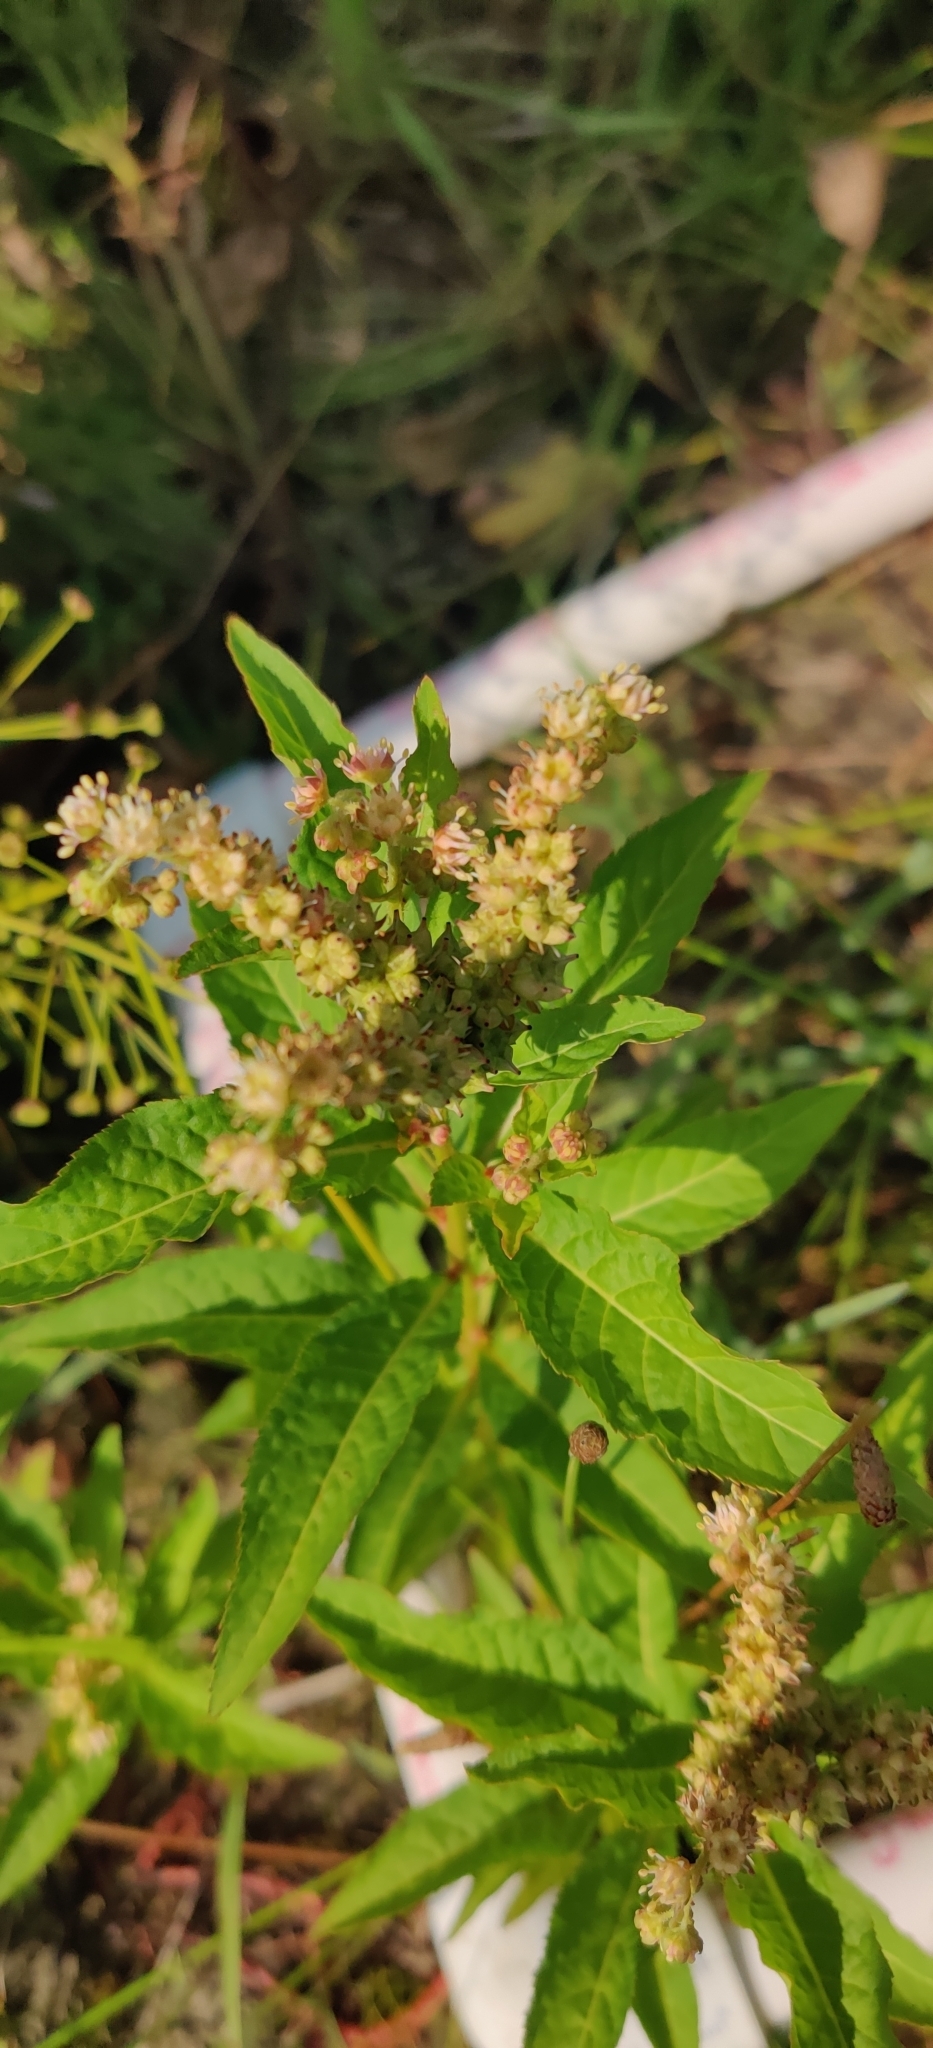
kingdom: Plantae
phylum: Tracheophyta
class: Magnoliopsida
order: Saxifragales
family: Penthoraceae
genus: Penthorum
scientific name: Penthorum sedoides
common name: Ditch stonecrop
